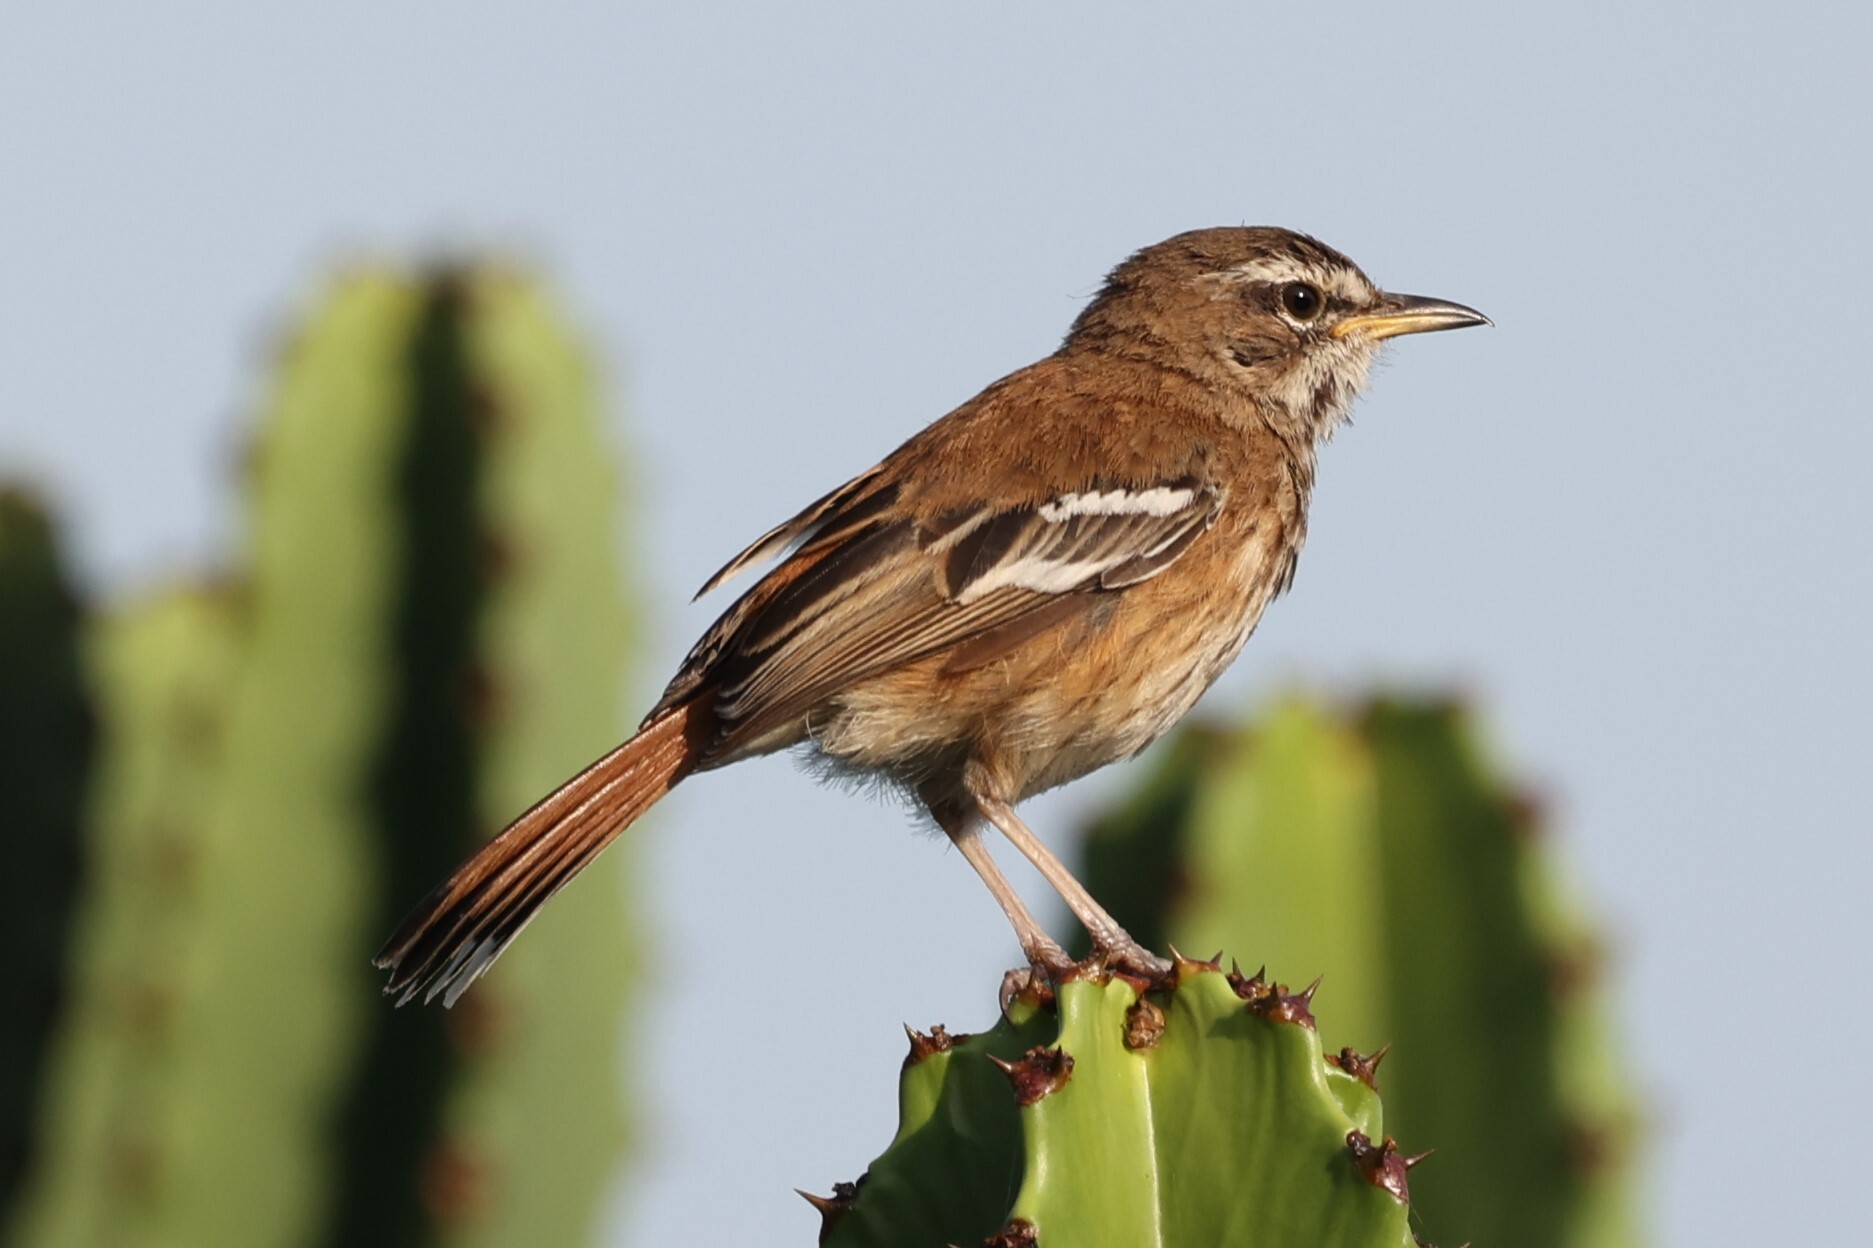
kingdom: Animalia
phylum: Chordata
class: Aves
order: Passeriformes
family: Muscicapidae
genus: Erythropygia
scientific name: Erythropygia leucophrys
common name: White-browed scrub robin
